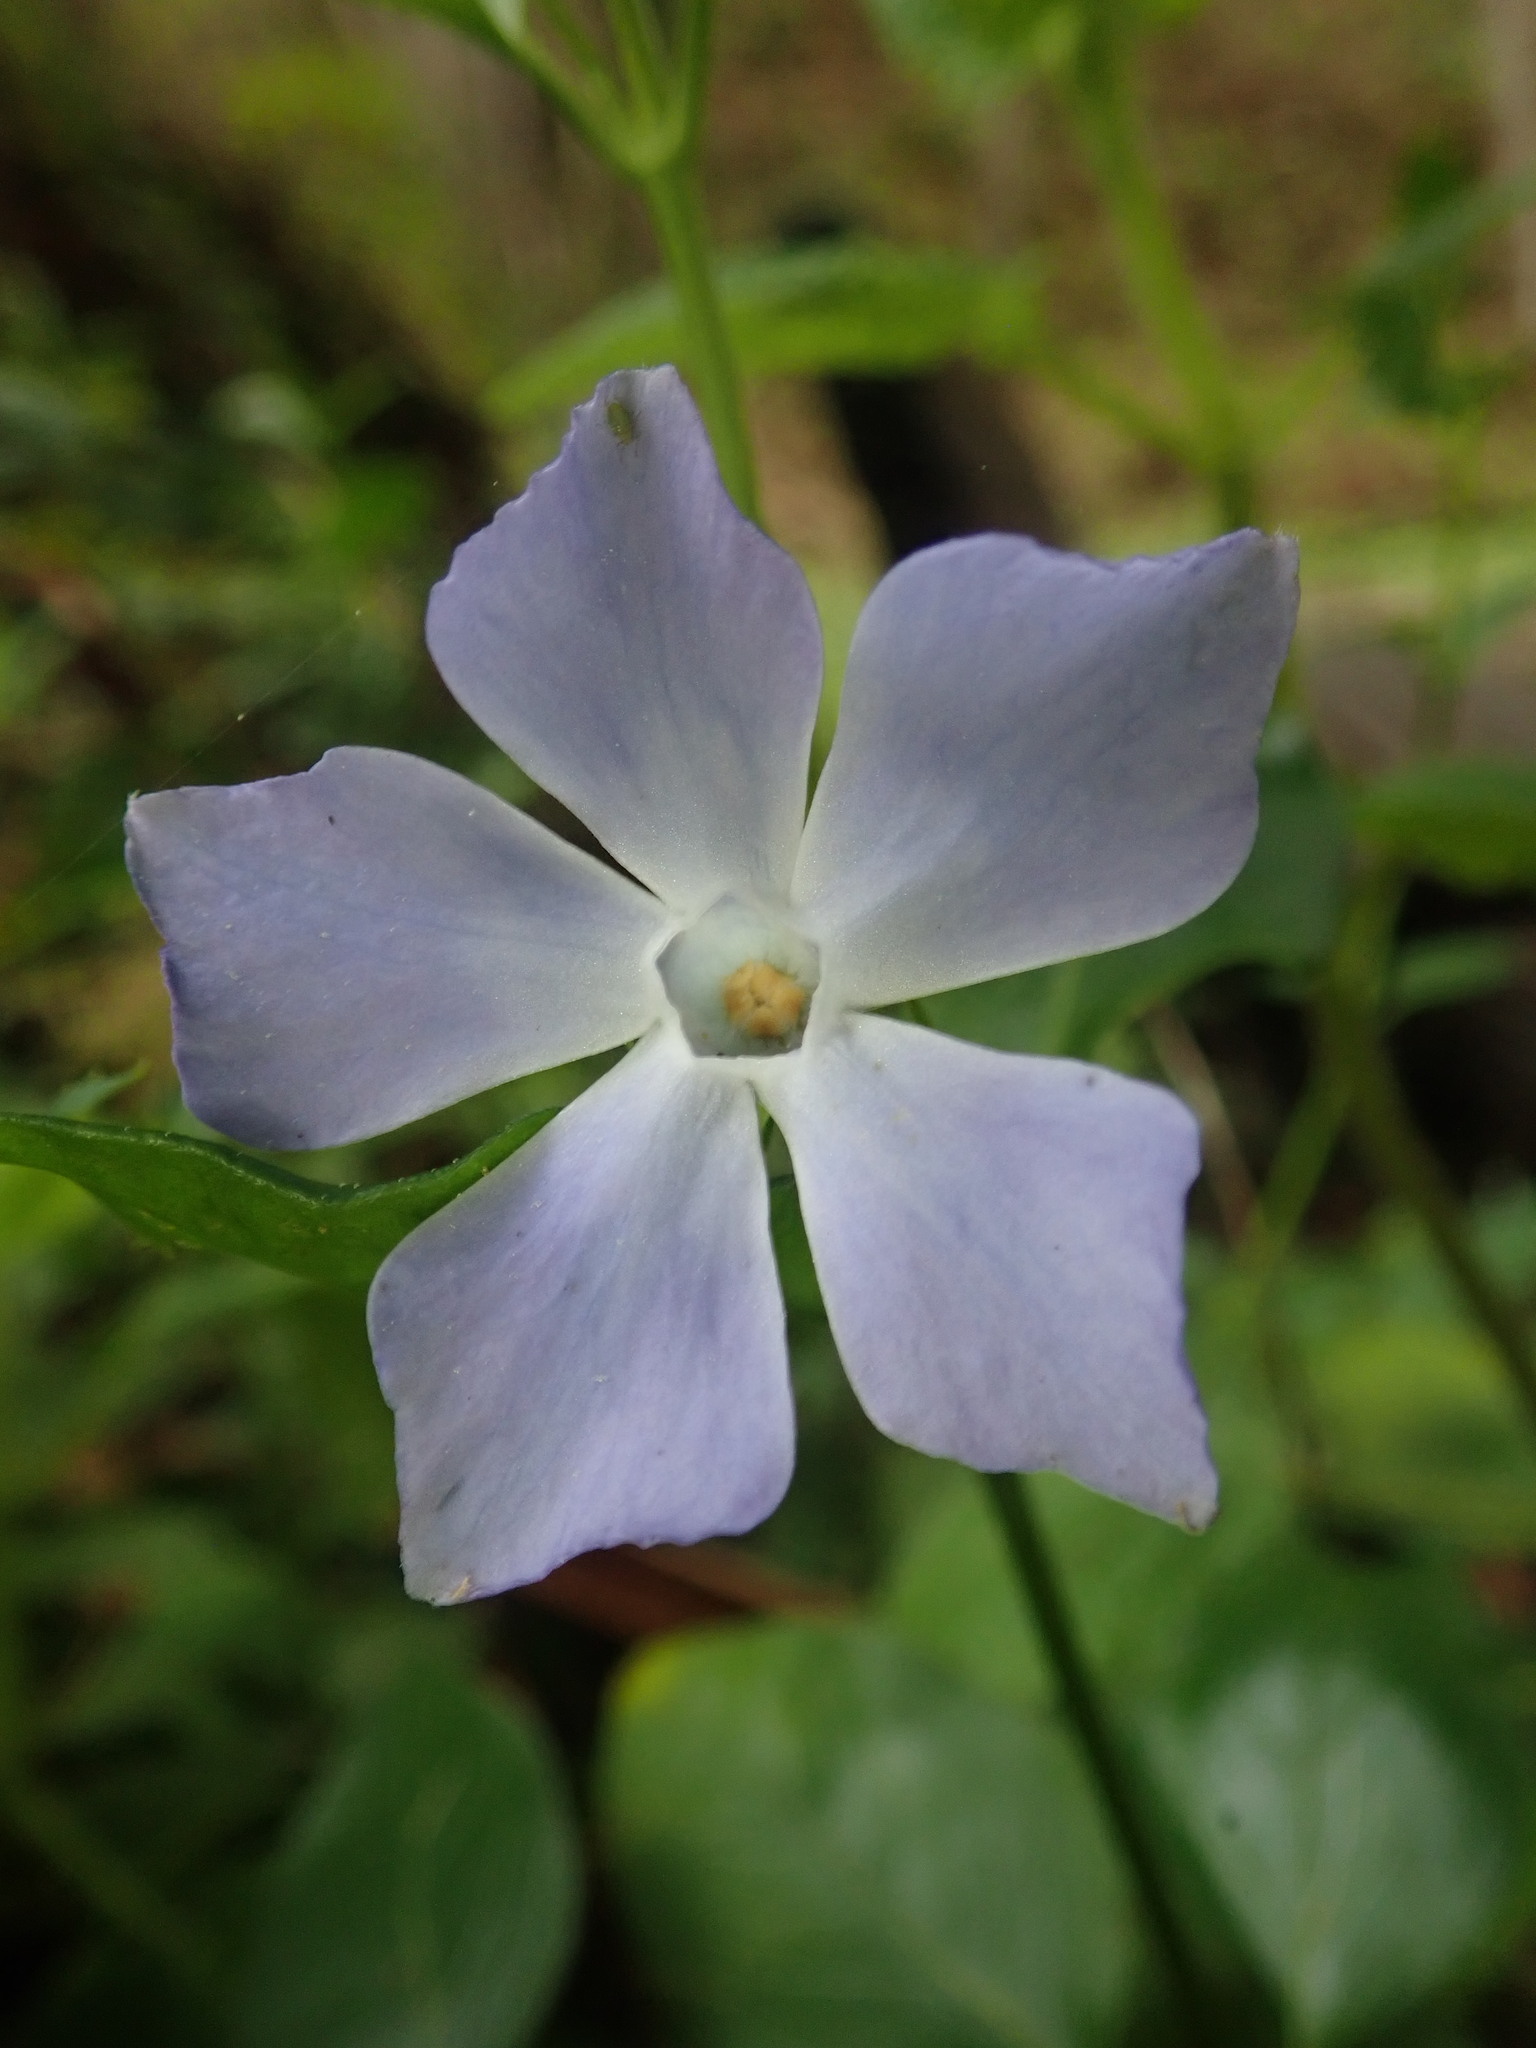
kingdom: Plantae
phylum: Tracheophyta
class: Magnoliopsida
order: Gentianales
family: Apocynaceae
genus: Vinca
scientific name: Vinca major
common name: Greater periwinkle
